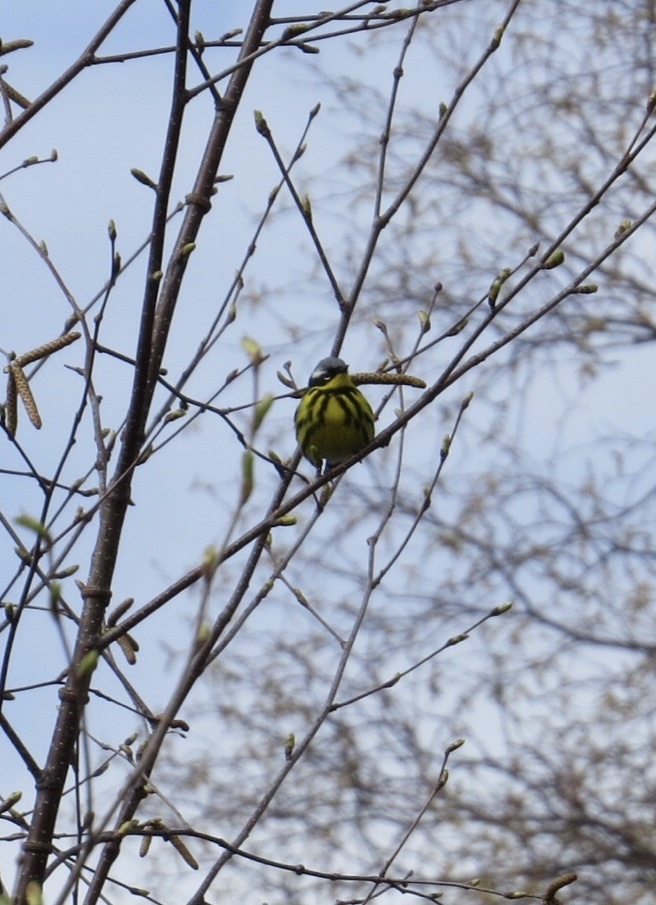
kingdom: Animalia
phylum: Chordata
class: Aves
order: Passeriformes
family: Parulidae
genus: Setophaga
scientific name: Setophaga magnolia
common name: Magnolia warbler
